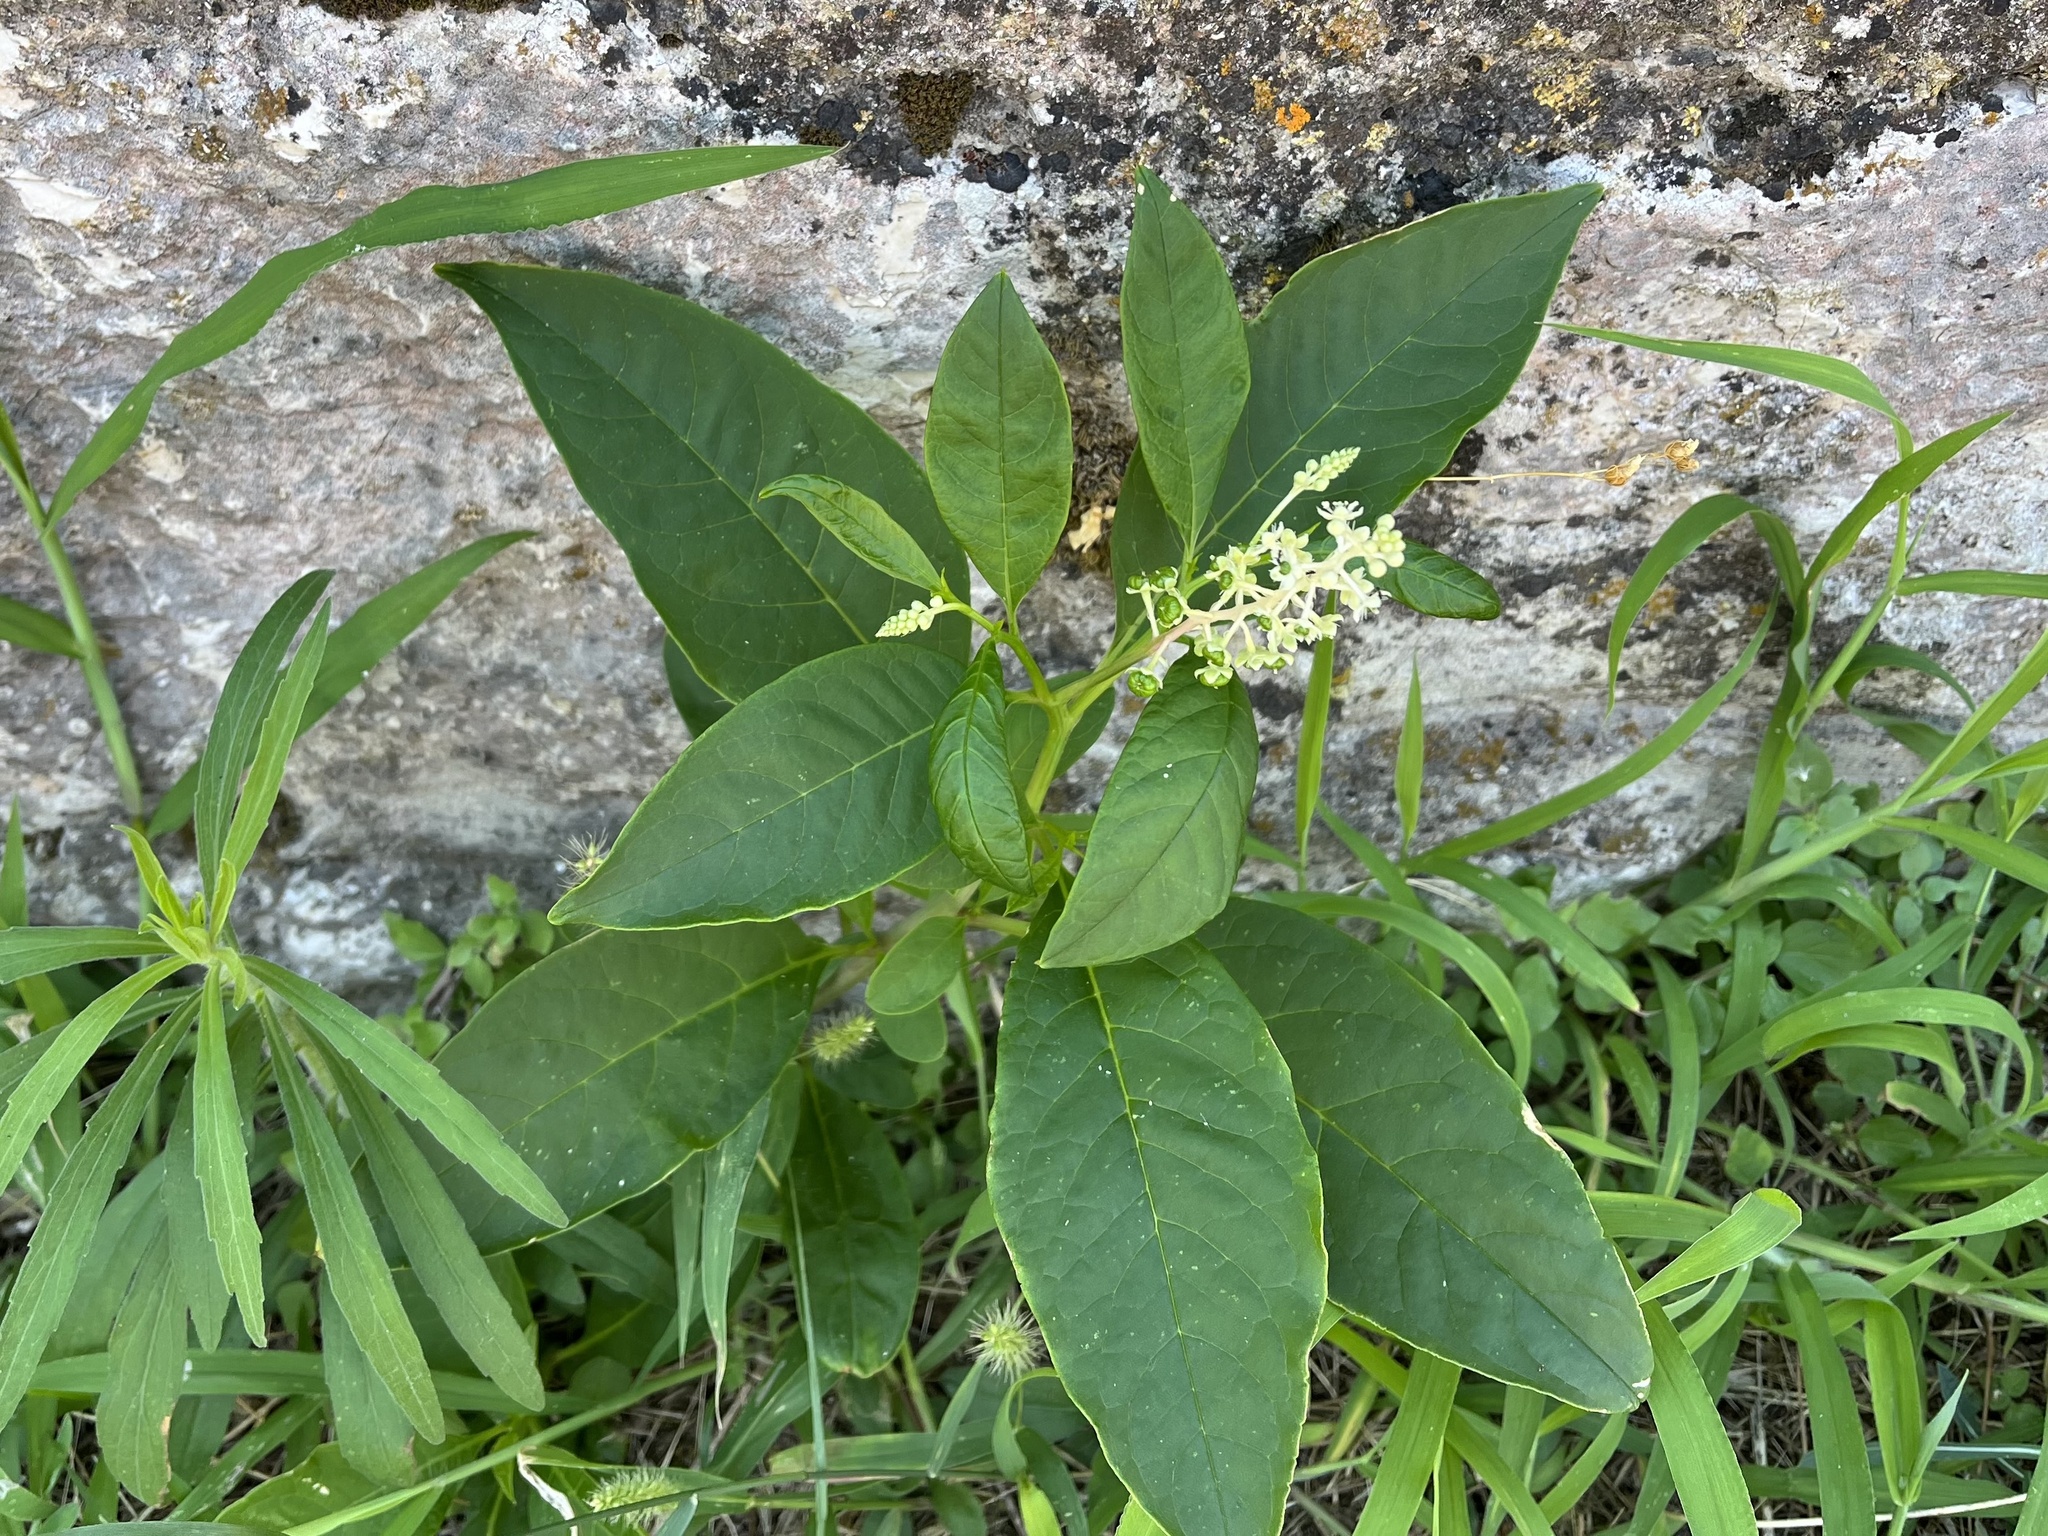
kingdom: Plantae
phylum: Tracheophyta
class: Magnoliopsida
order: Caryophyllales
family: Phytolaccaceae
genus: Phytolacca
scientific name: Phytolacca americana
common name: American pokeweed
